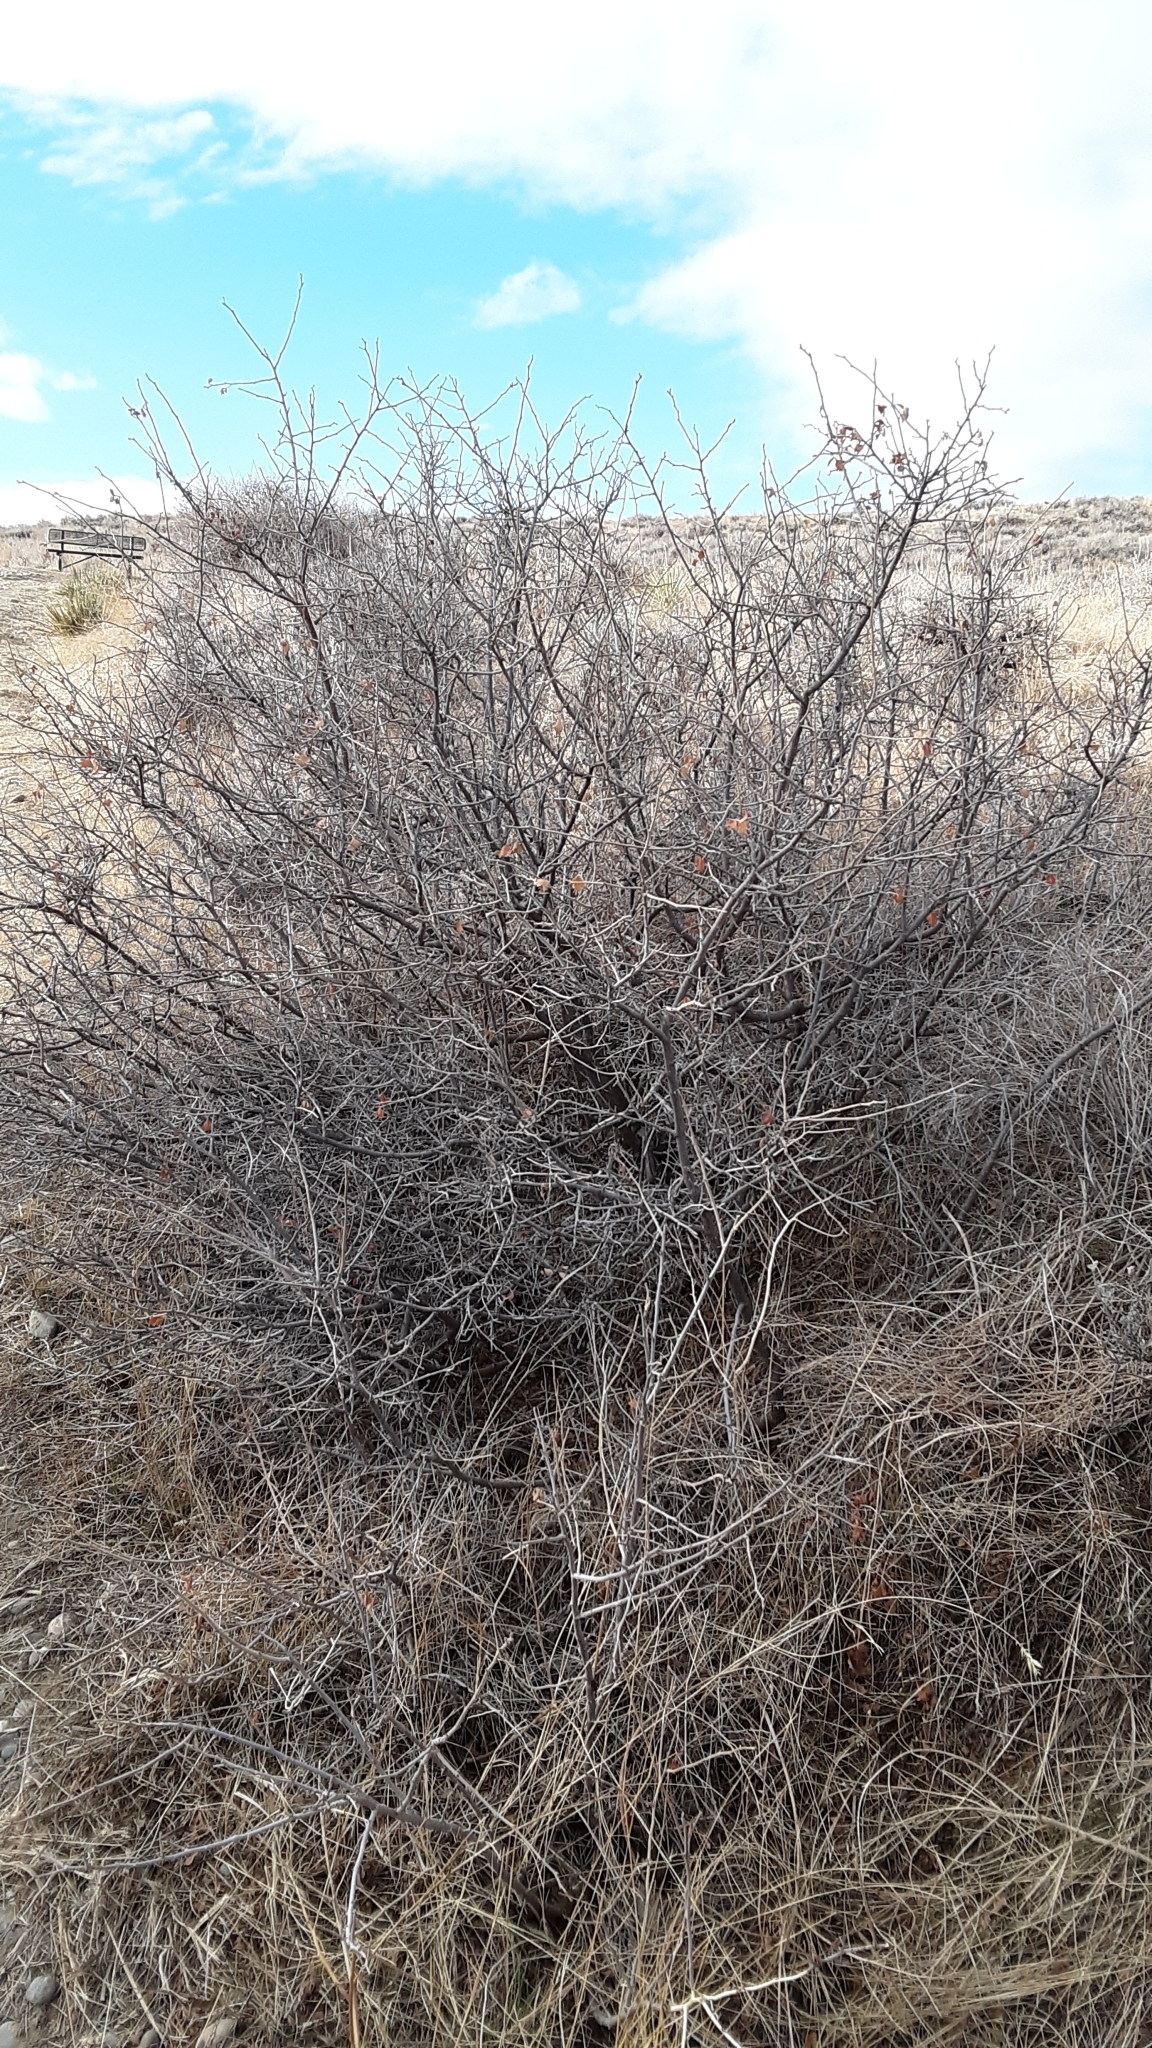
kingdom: Plantae
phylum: Tracheophyta
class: Magnoliopsida
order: Sapindales
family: Anacardiaceae
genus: Rhus
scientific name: Rhus aromatica
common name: Aromatic sumac
